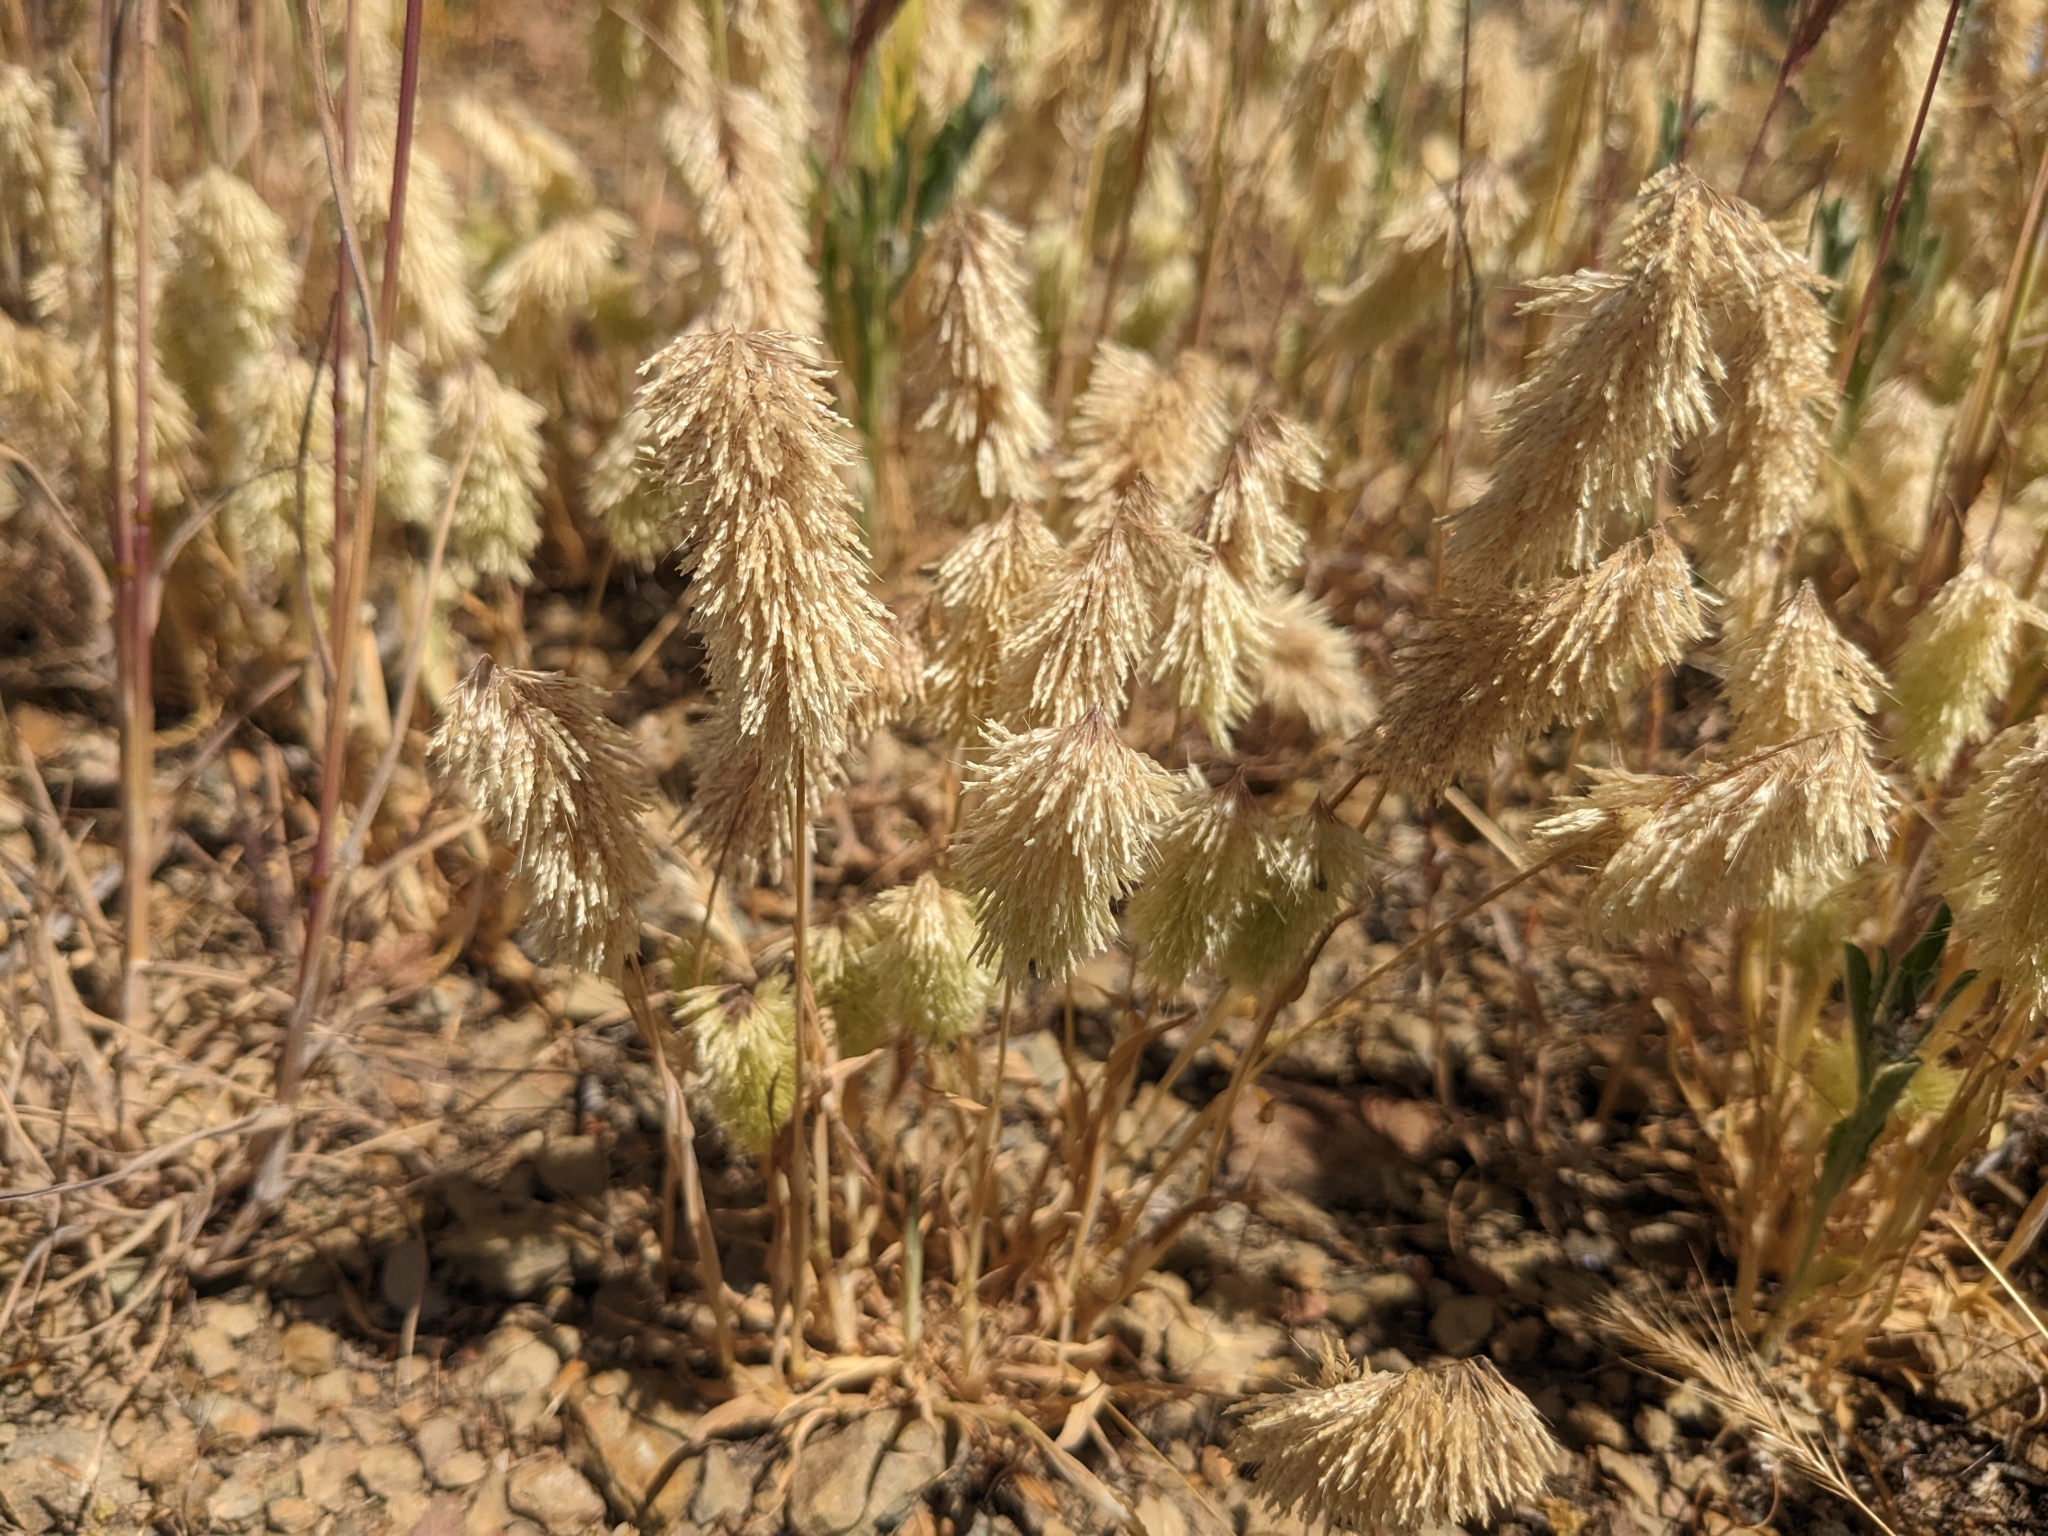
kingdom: Plantae
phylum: Tracheophyta
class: Liliopsida
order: Poales
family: Poaceae
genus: Lamarckia
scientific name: Lamarckia aurea
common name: Golden dog's-tail
